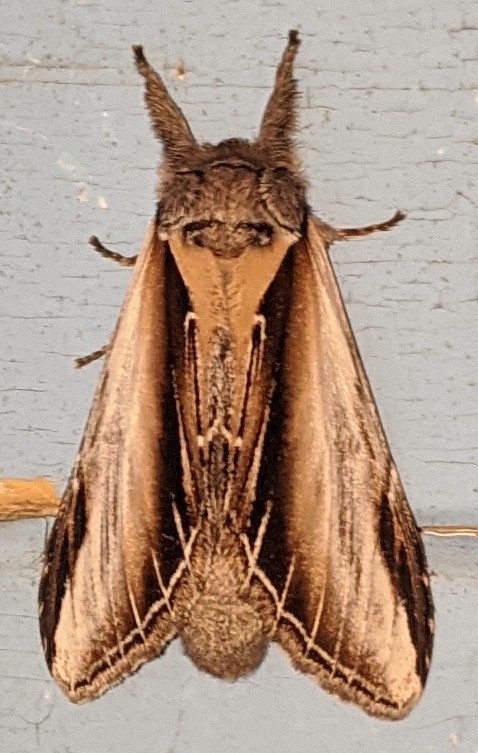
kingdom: Animalia
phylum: Arthropoda
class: Insecta
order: Lepidoptera
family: Notodontidae
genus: Pheosia
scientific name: Pheosia rimosa
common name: Black-rimmed prominent
